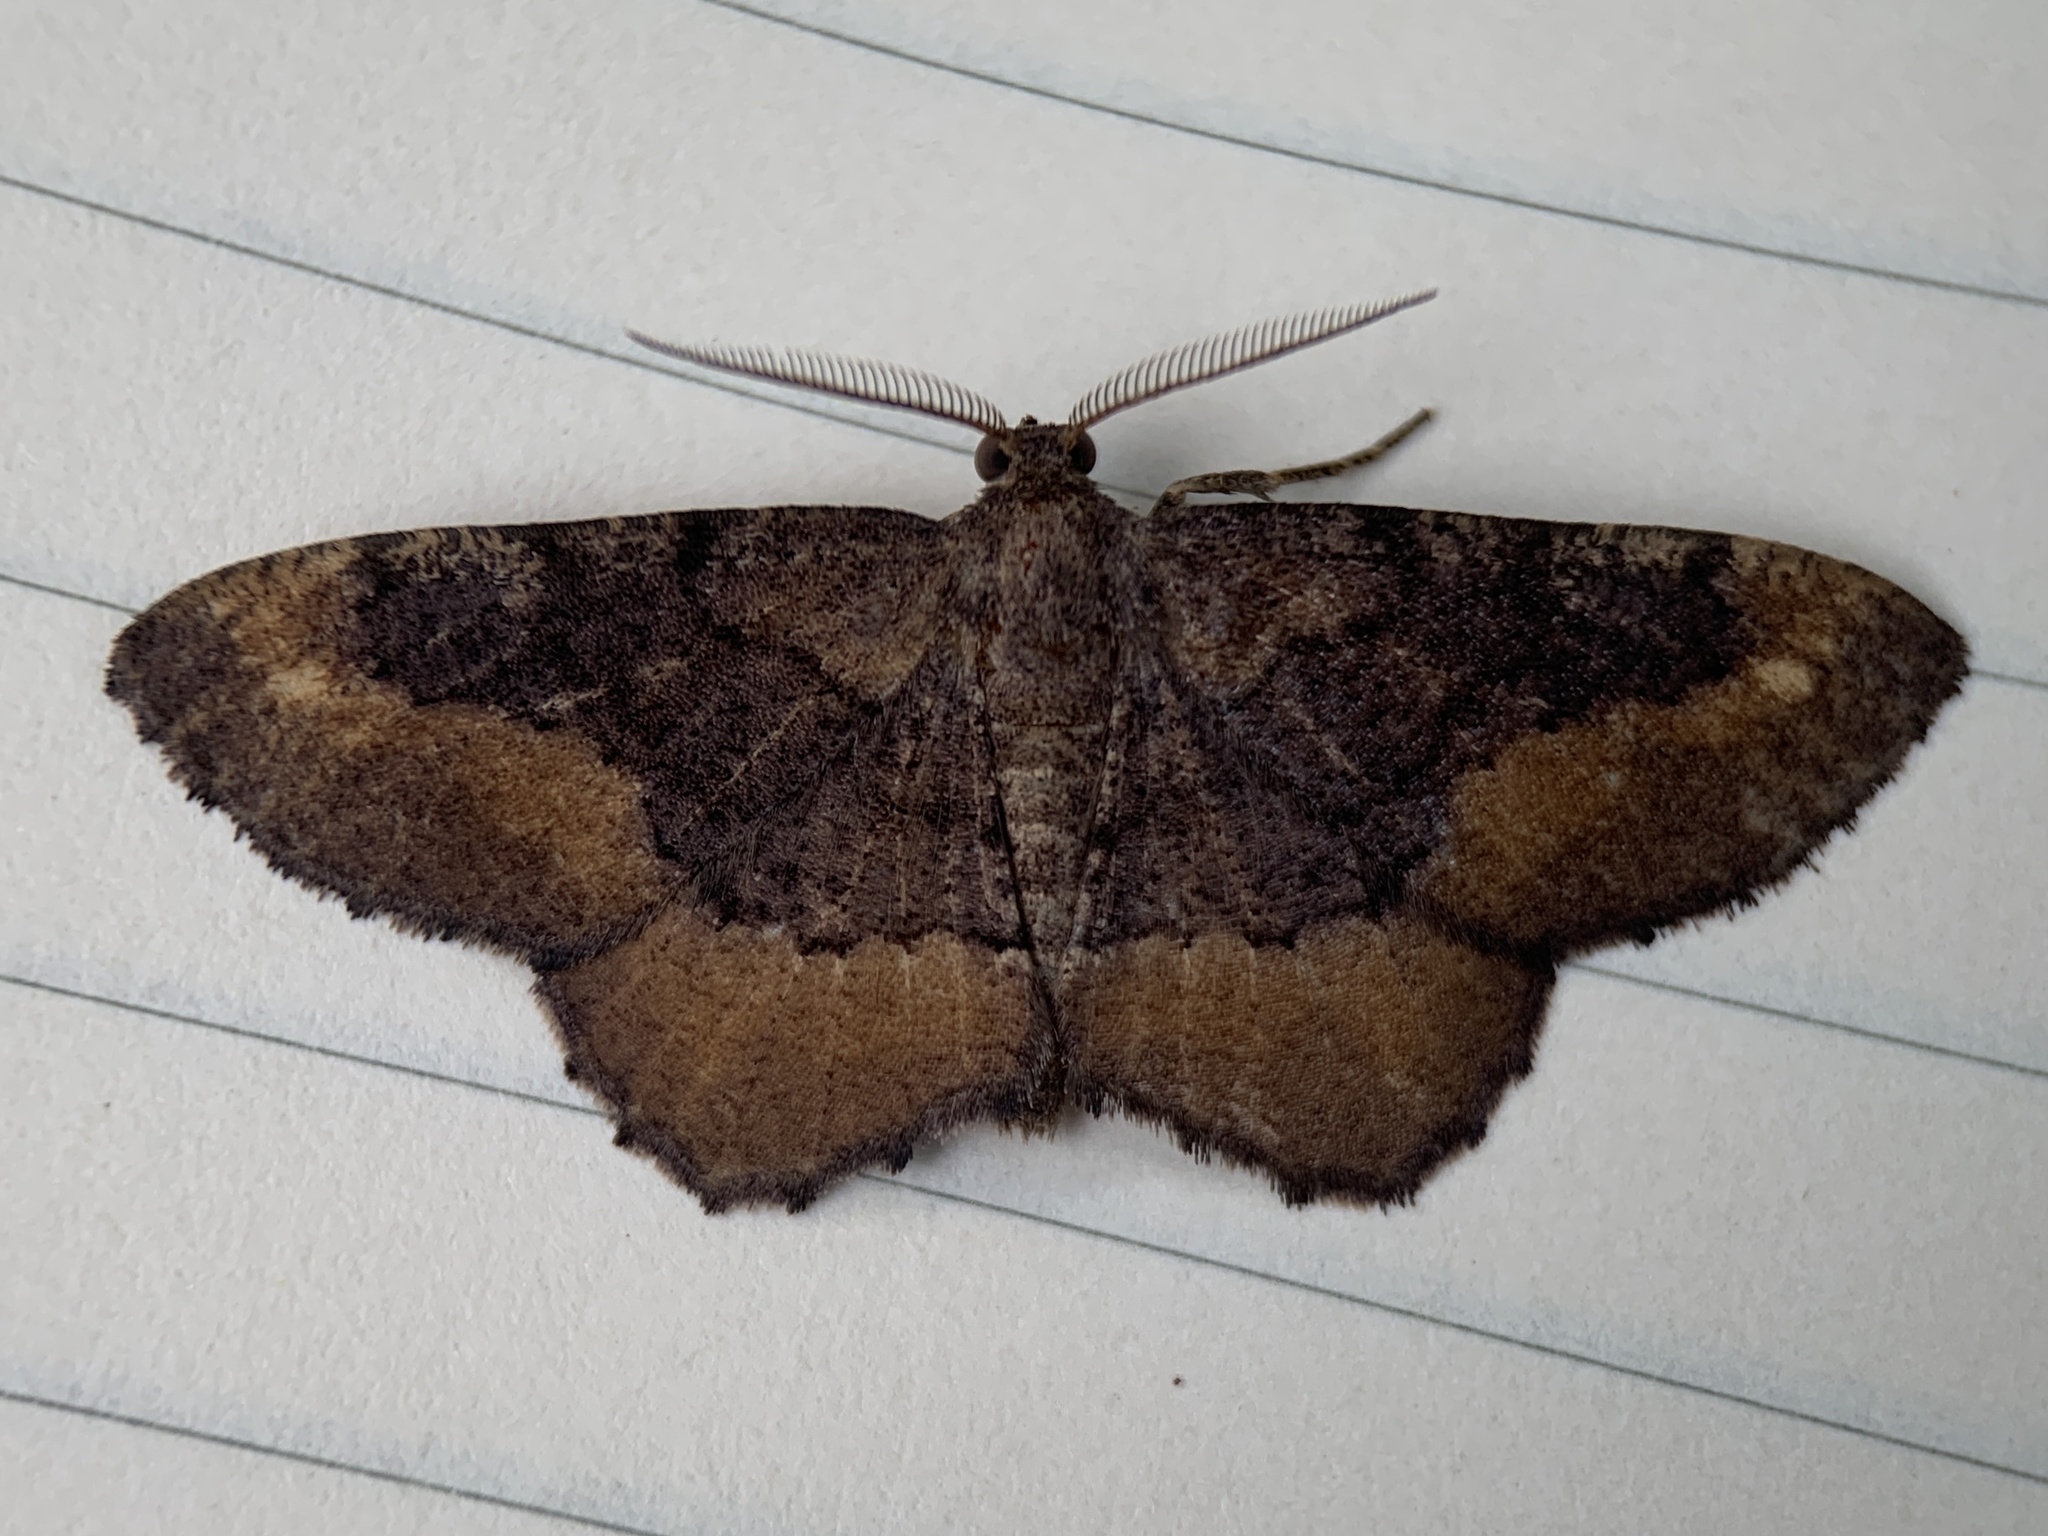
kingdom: Animalia
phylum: Arthropoda
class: Insecta
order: Lepidoptera
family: Geometridae
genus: Hypagyrtis
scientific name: Hypagyrtis unipunctata
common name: One-spotted variant
